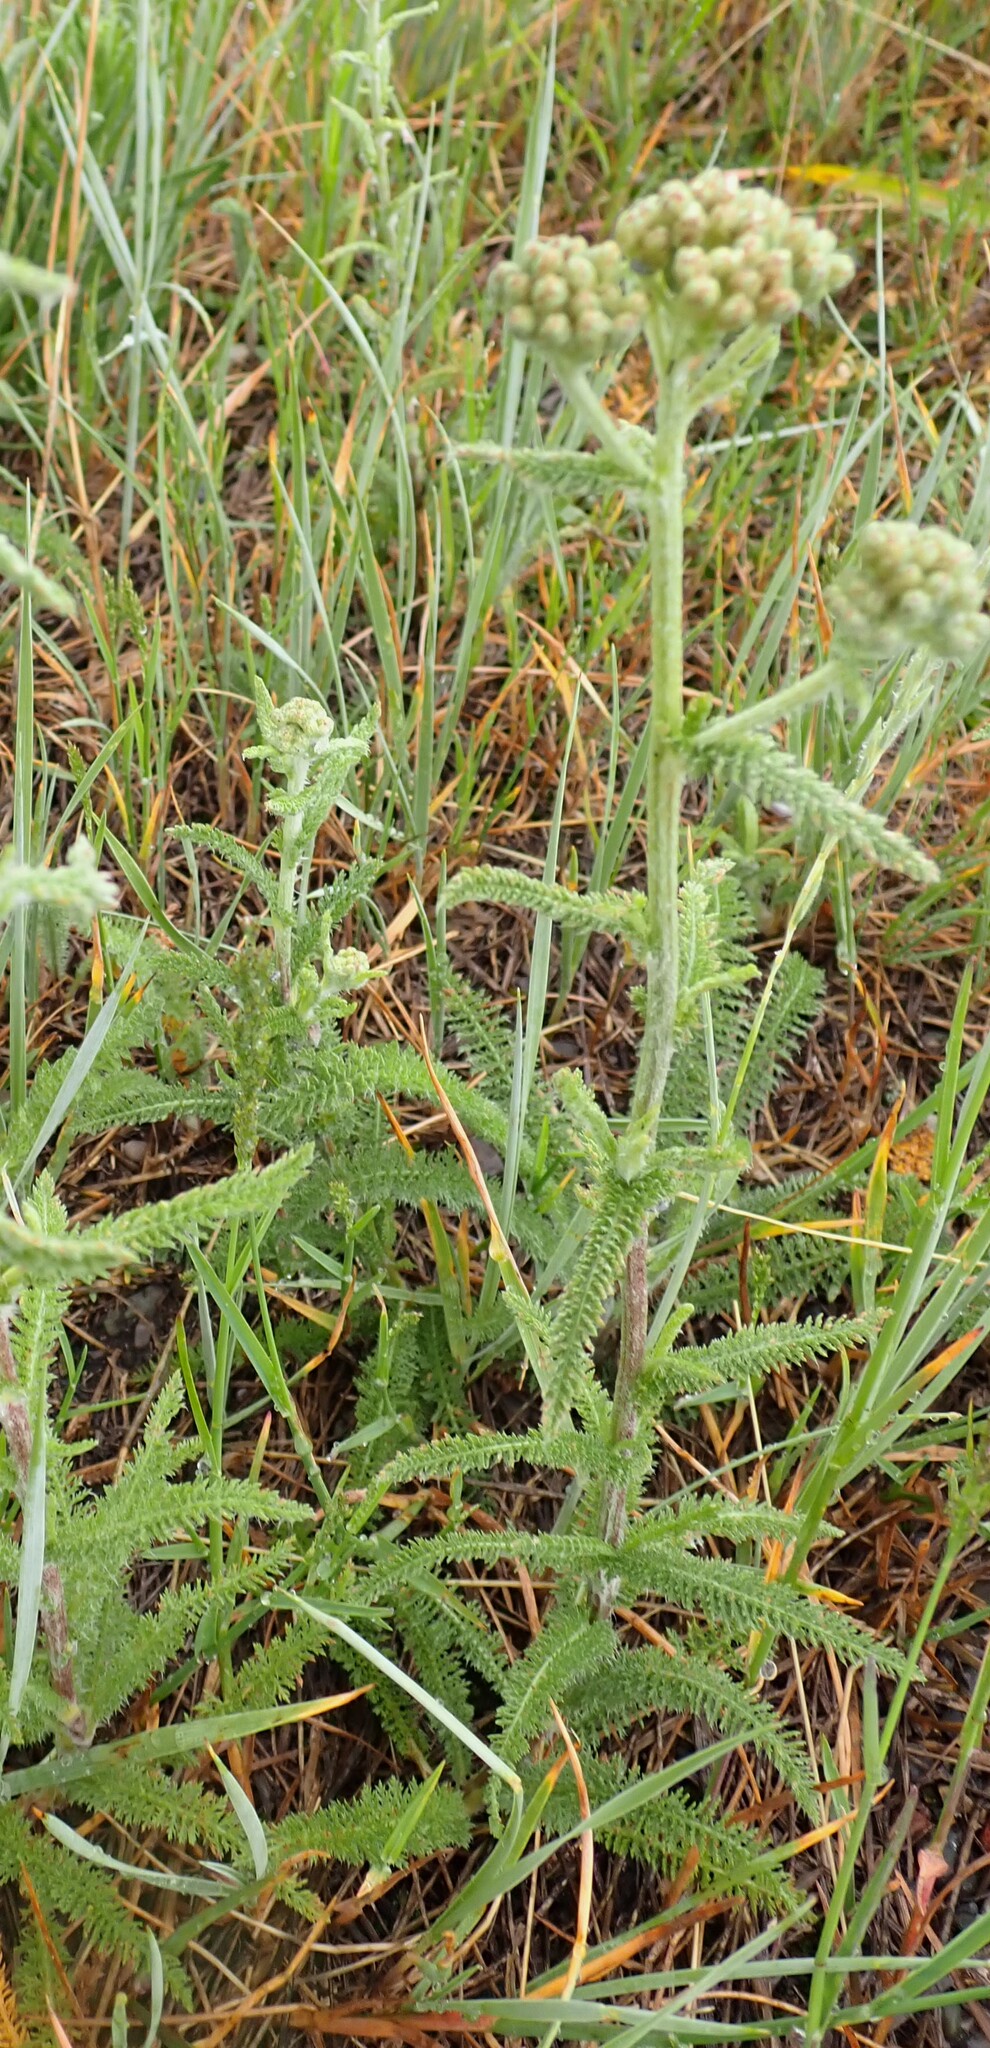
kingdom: Plantae
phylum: Tracheophyta
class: Magnoliopsida
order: Asterales
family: Asteraceae
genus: Achillea
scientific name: Achillea millefolium
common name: Yarrow
